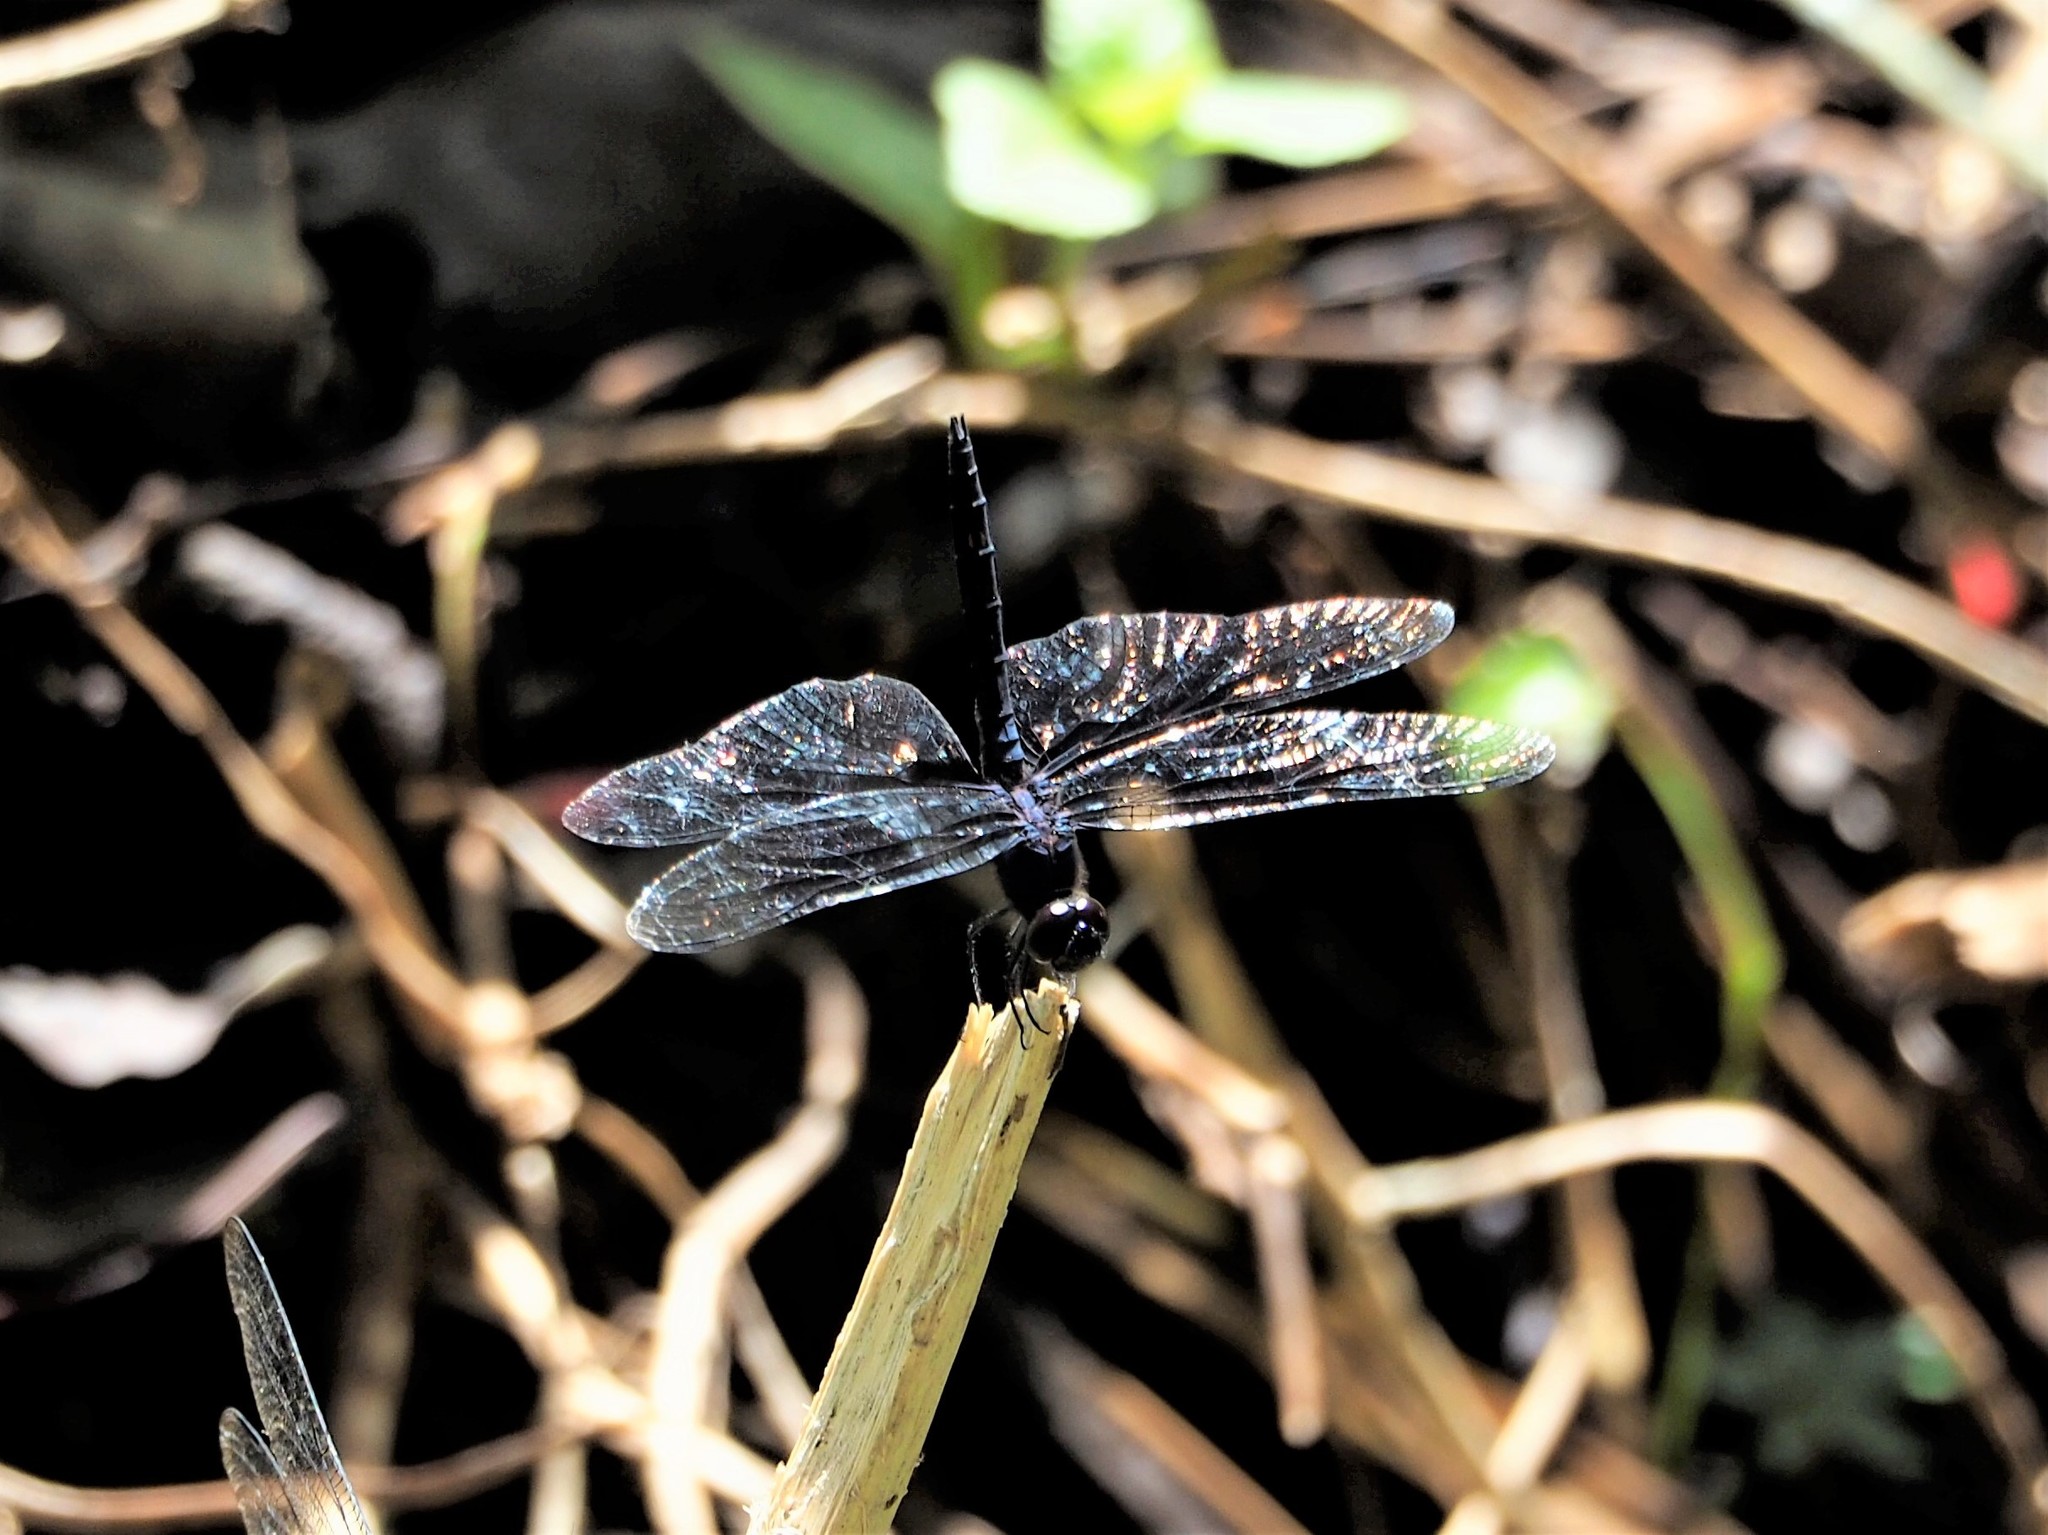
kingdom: Animalia
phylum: Arthropoda
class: Insecta
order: Odonata
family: Libellulidae
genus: Trithemis
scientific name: Trithemis festiva
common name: Indigo dropwing
